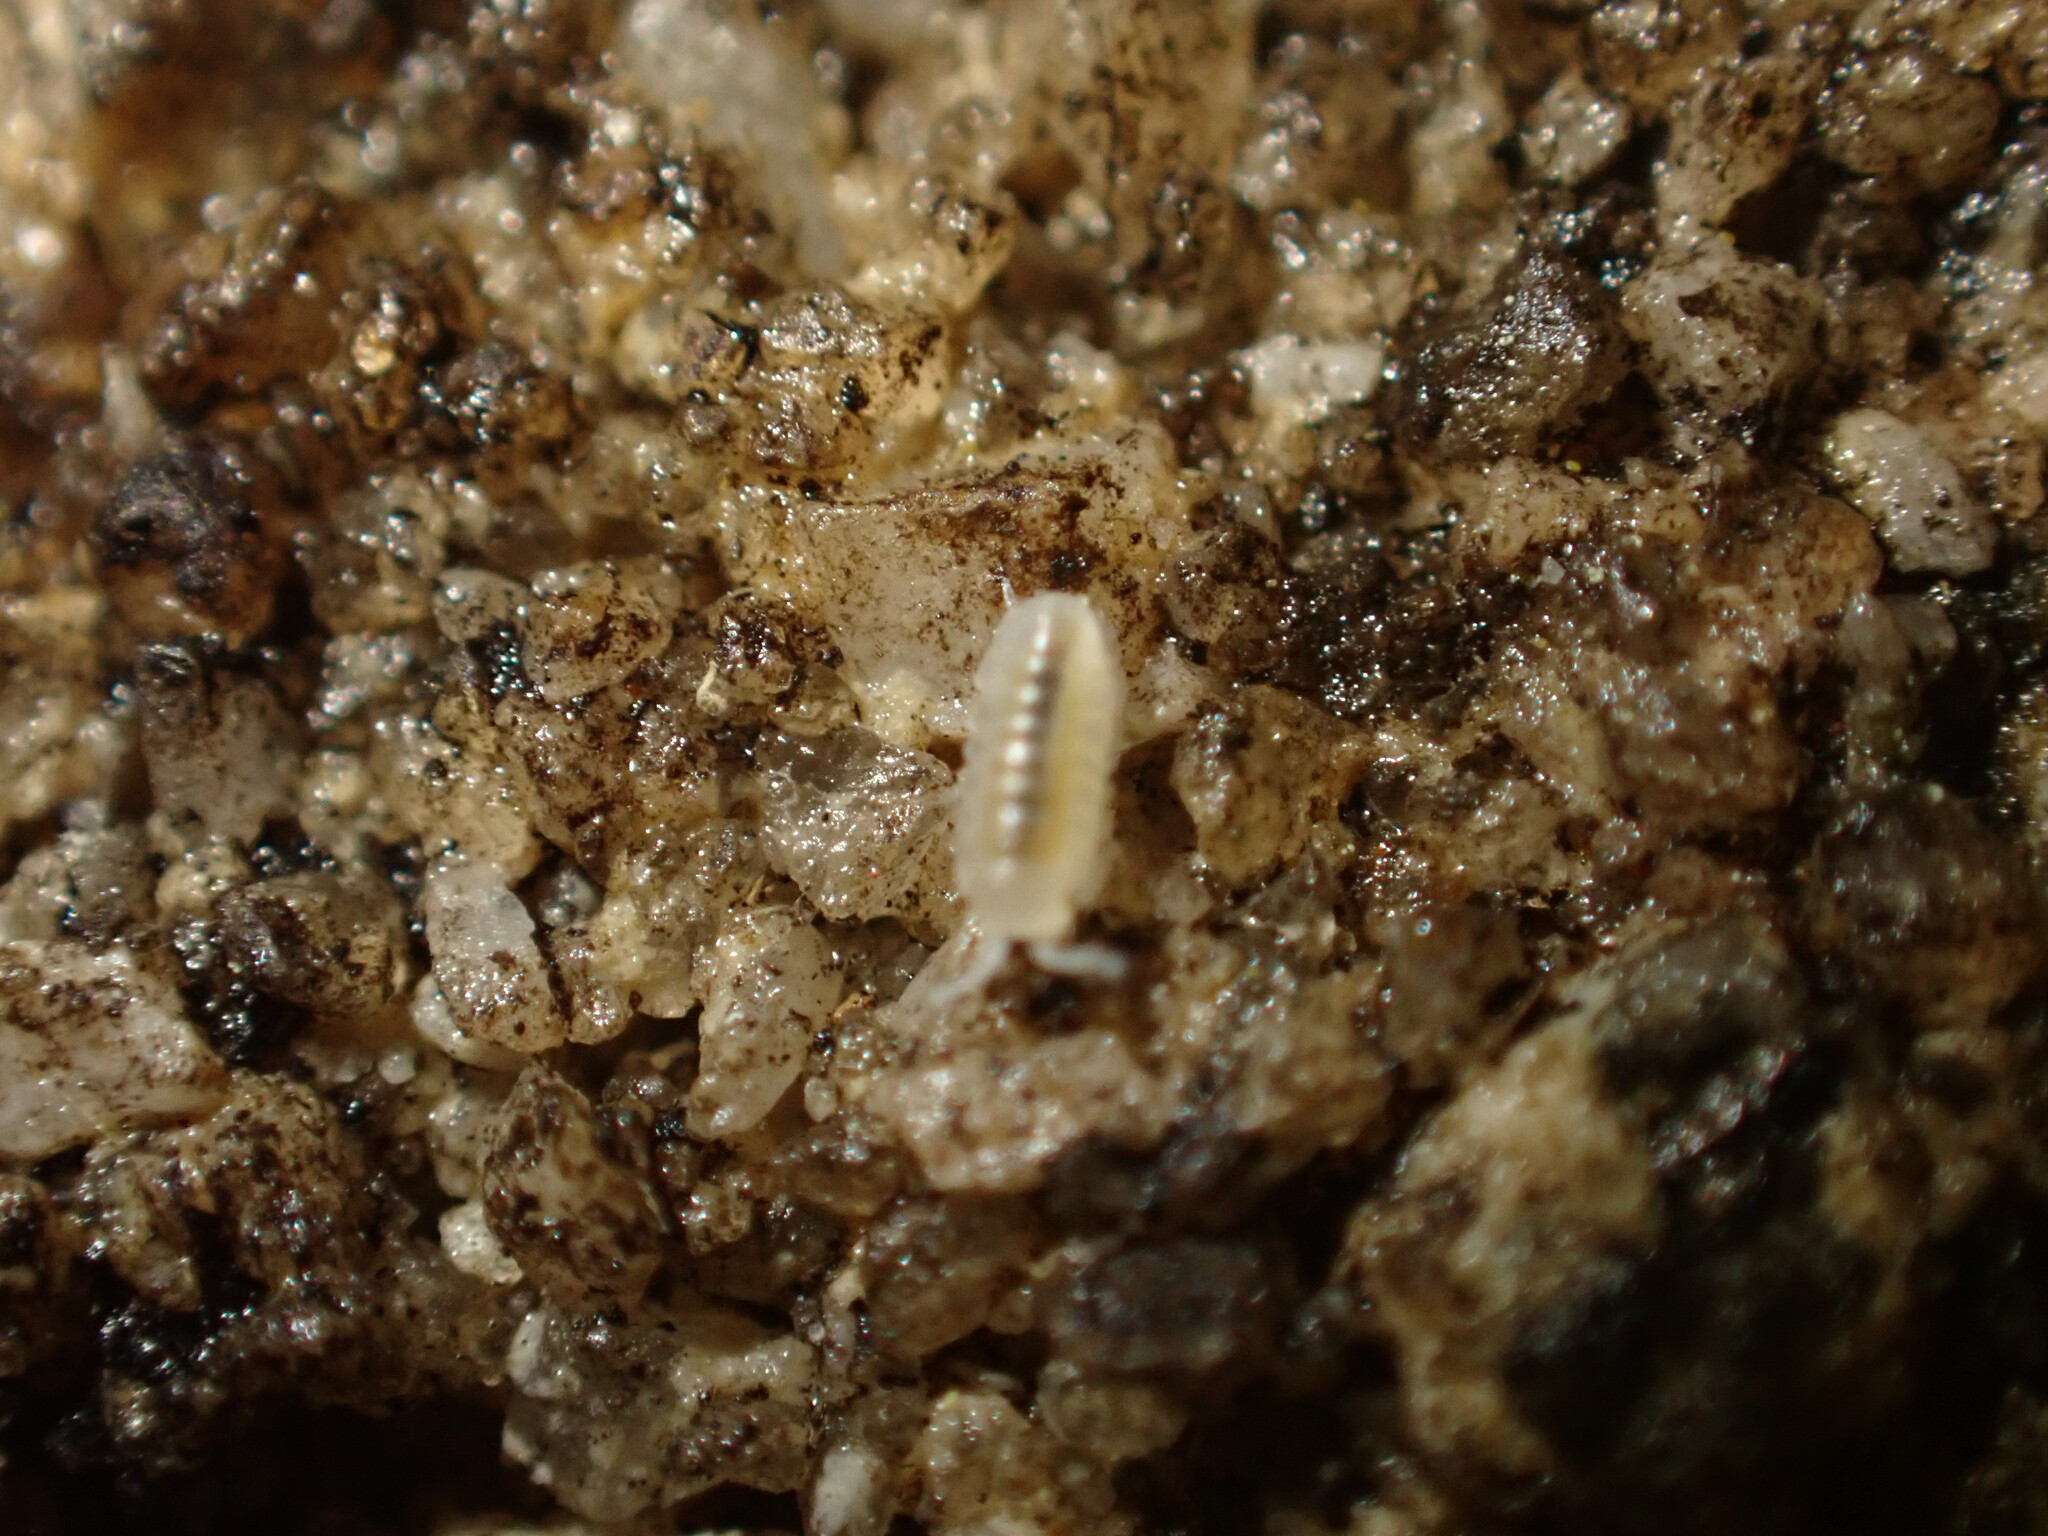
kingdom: Animalia
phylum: Arthropoda
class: Malacostraca
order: Isopoda
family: Armadillidiidae
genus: Armadillidium
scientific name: Armadillidium vulgare
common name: Common pill woodlouse
